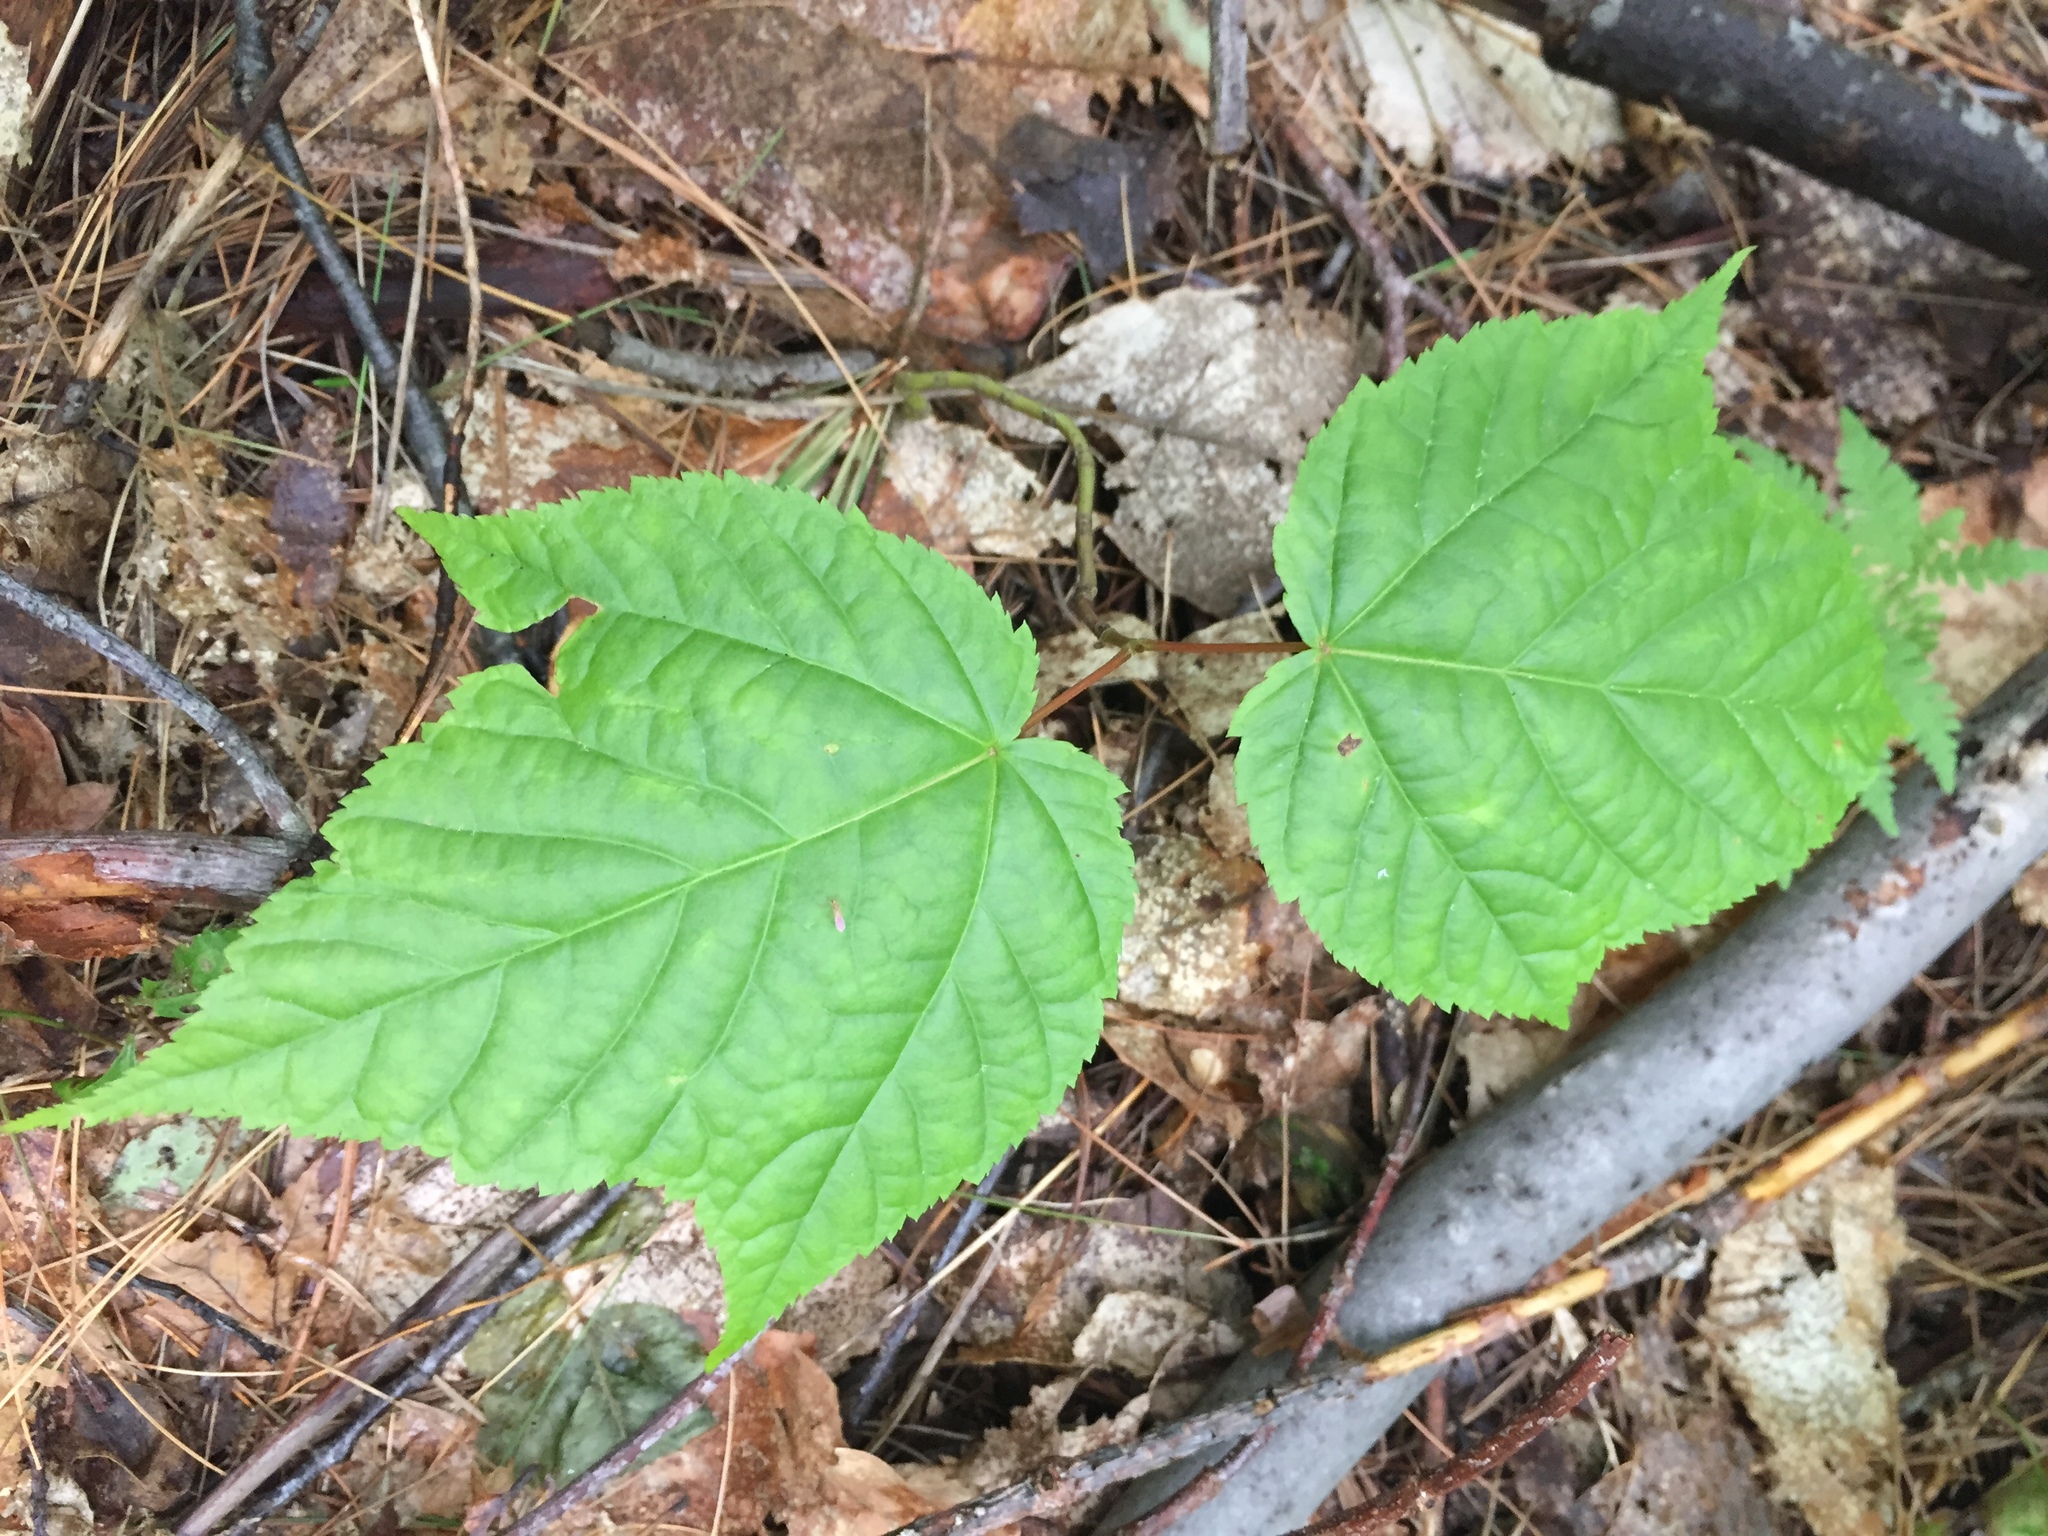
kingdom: Plantae
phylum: Tracheophyta
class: Magnoliopsida
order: Sapindales
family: Sapindaceae
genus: Acer
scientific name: Acer pensylvanicum
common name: Moosewood
